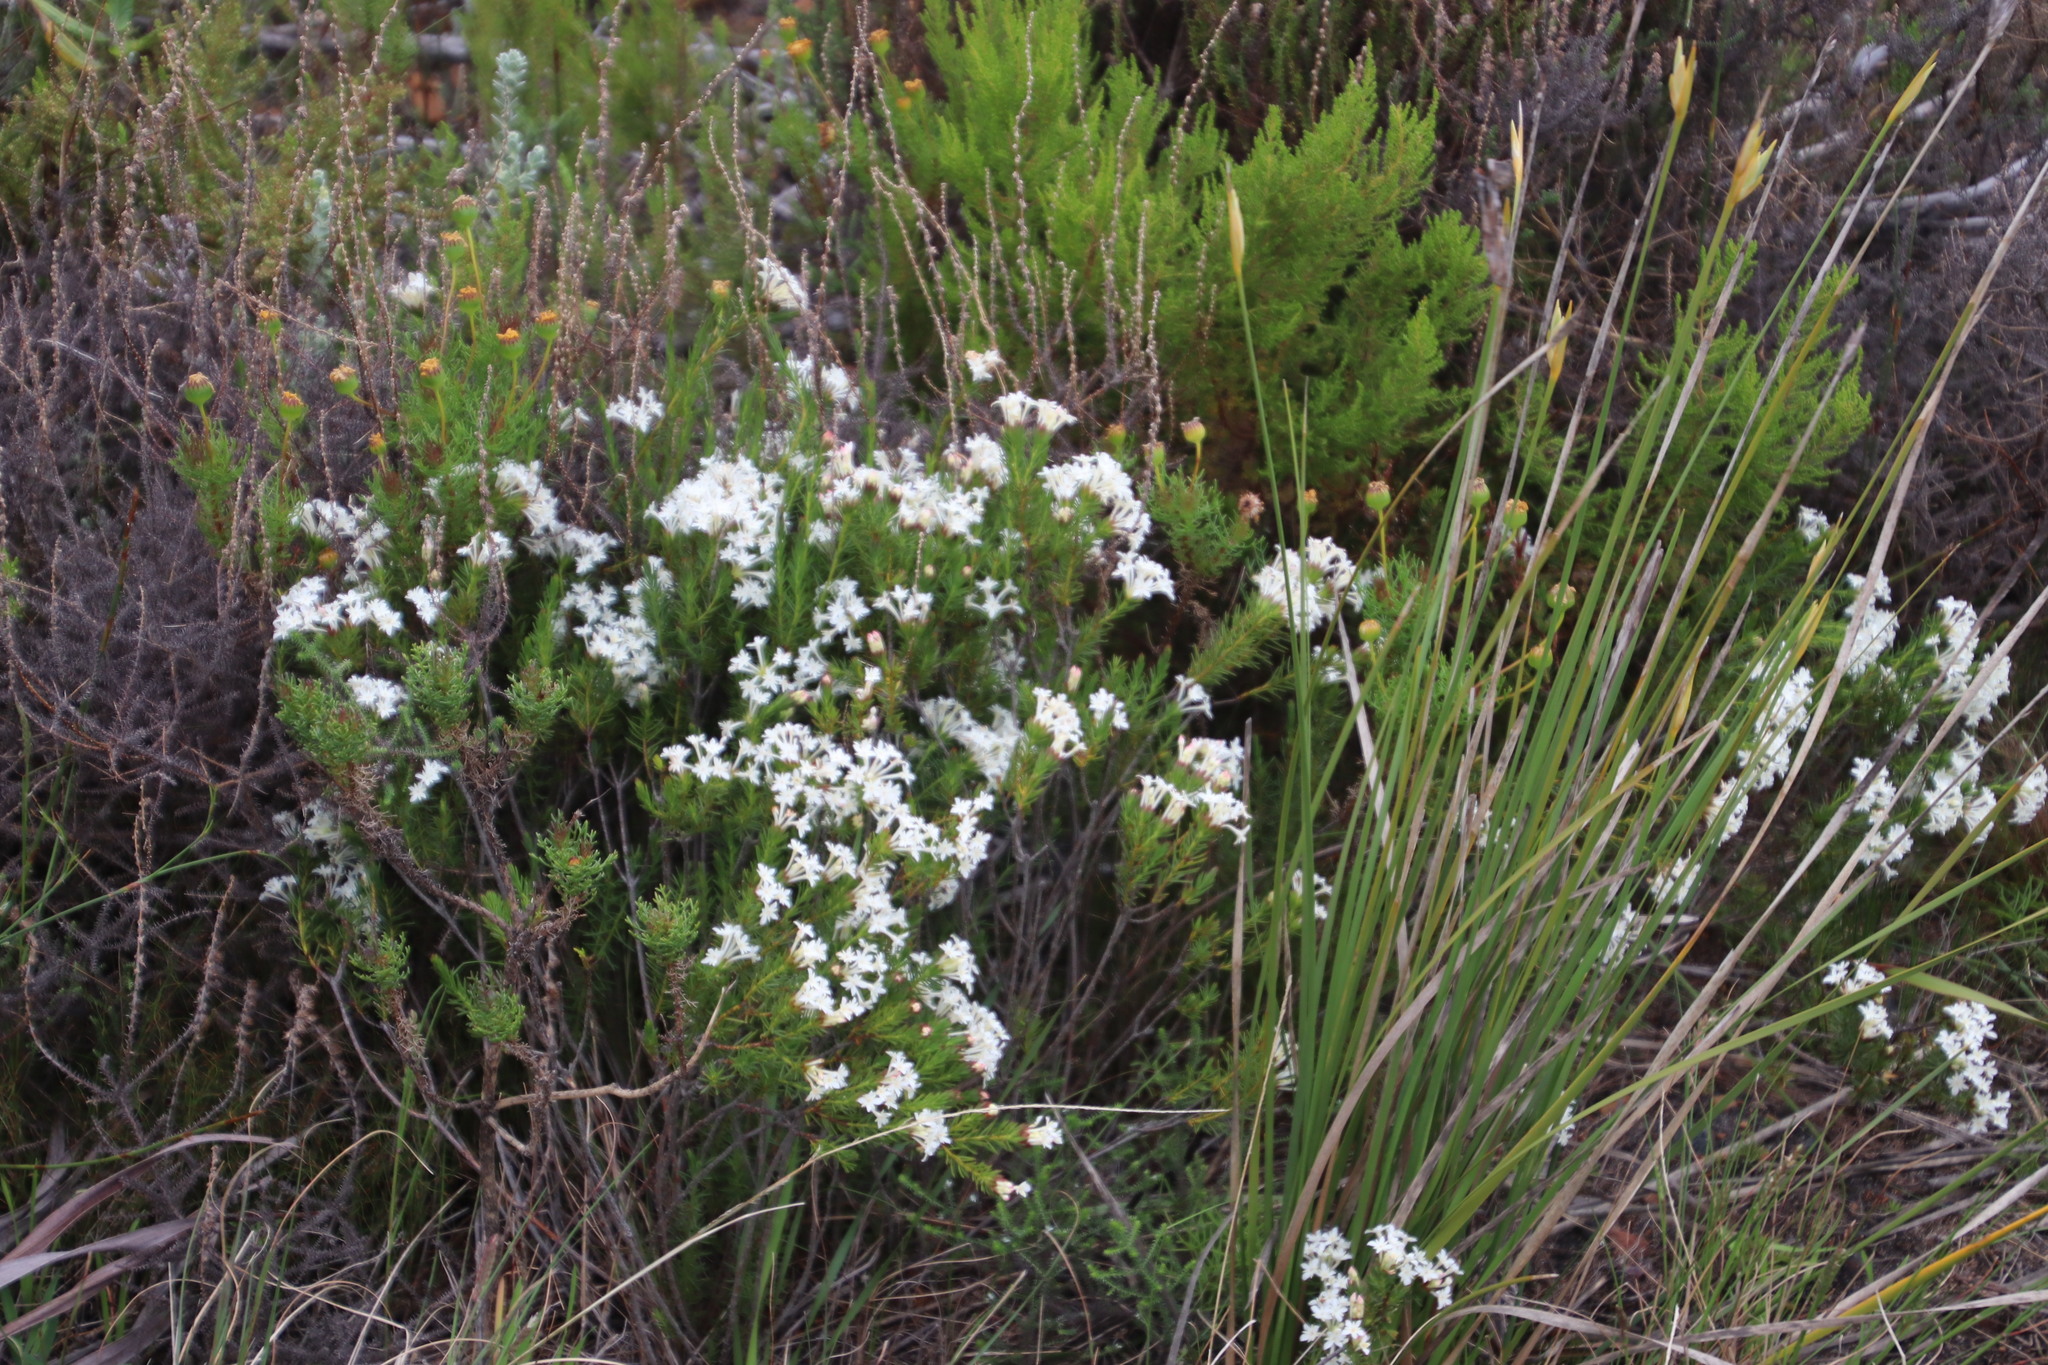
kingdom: Plantae
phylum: Tracheophyta
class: Magnoliopsida
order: Malvales
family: Thymelaeaceae
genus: Gnidia
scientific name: Gnidia pinifolia
